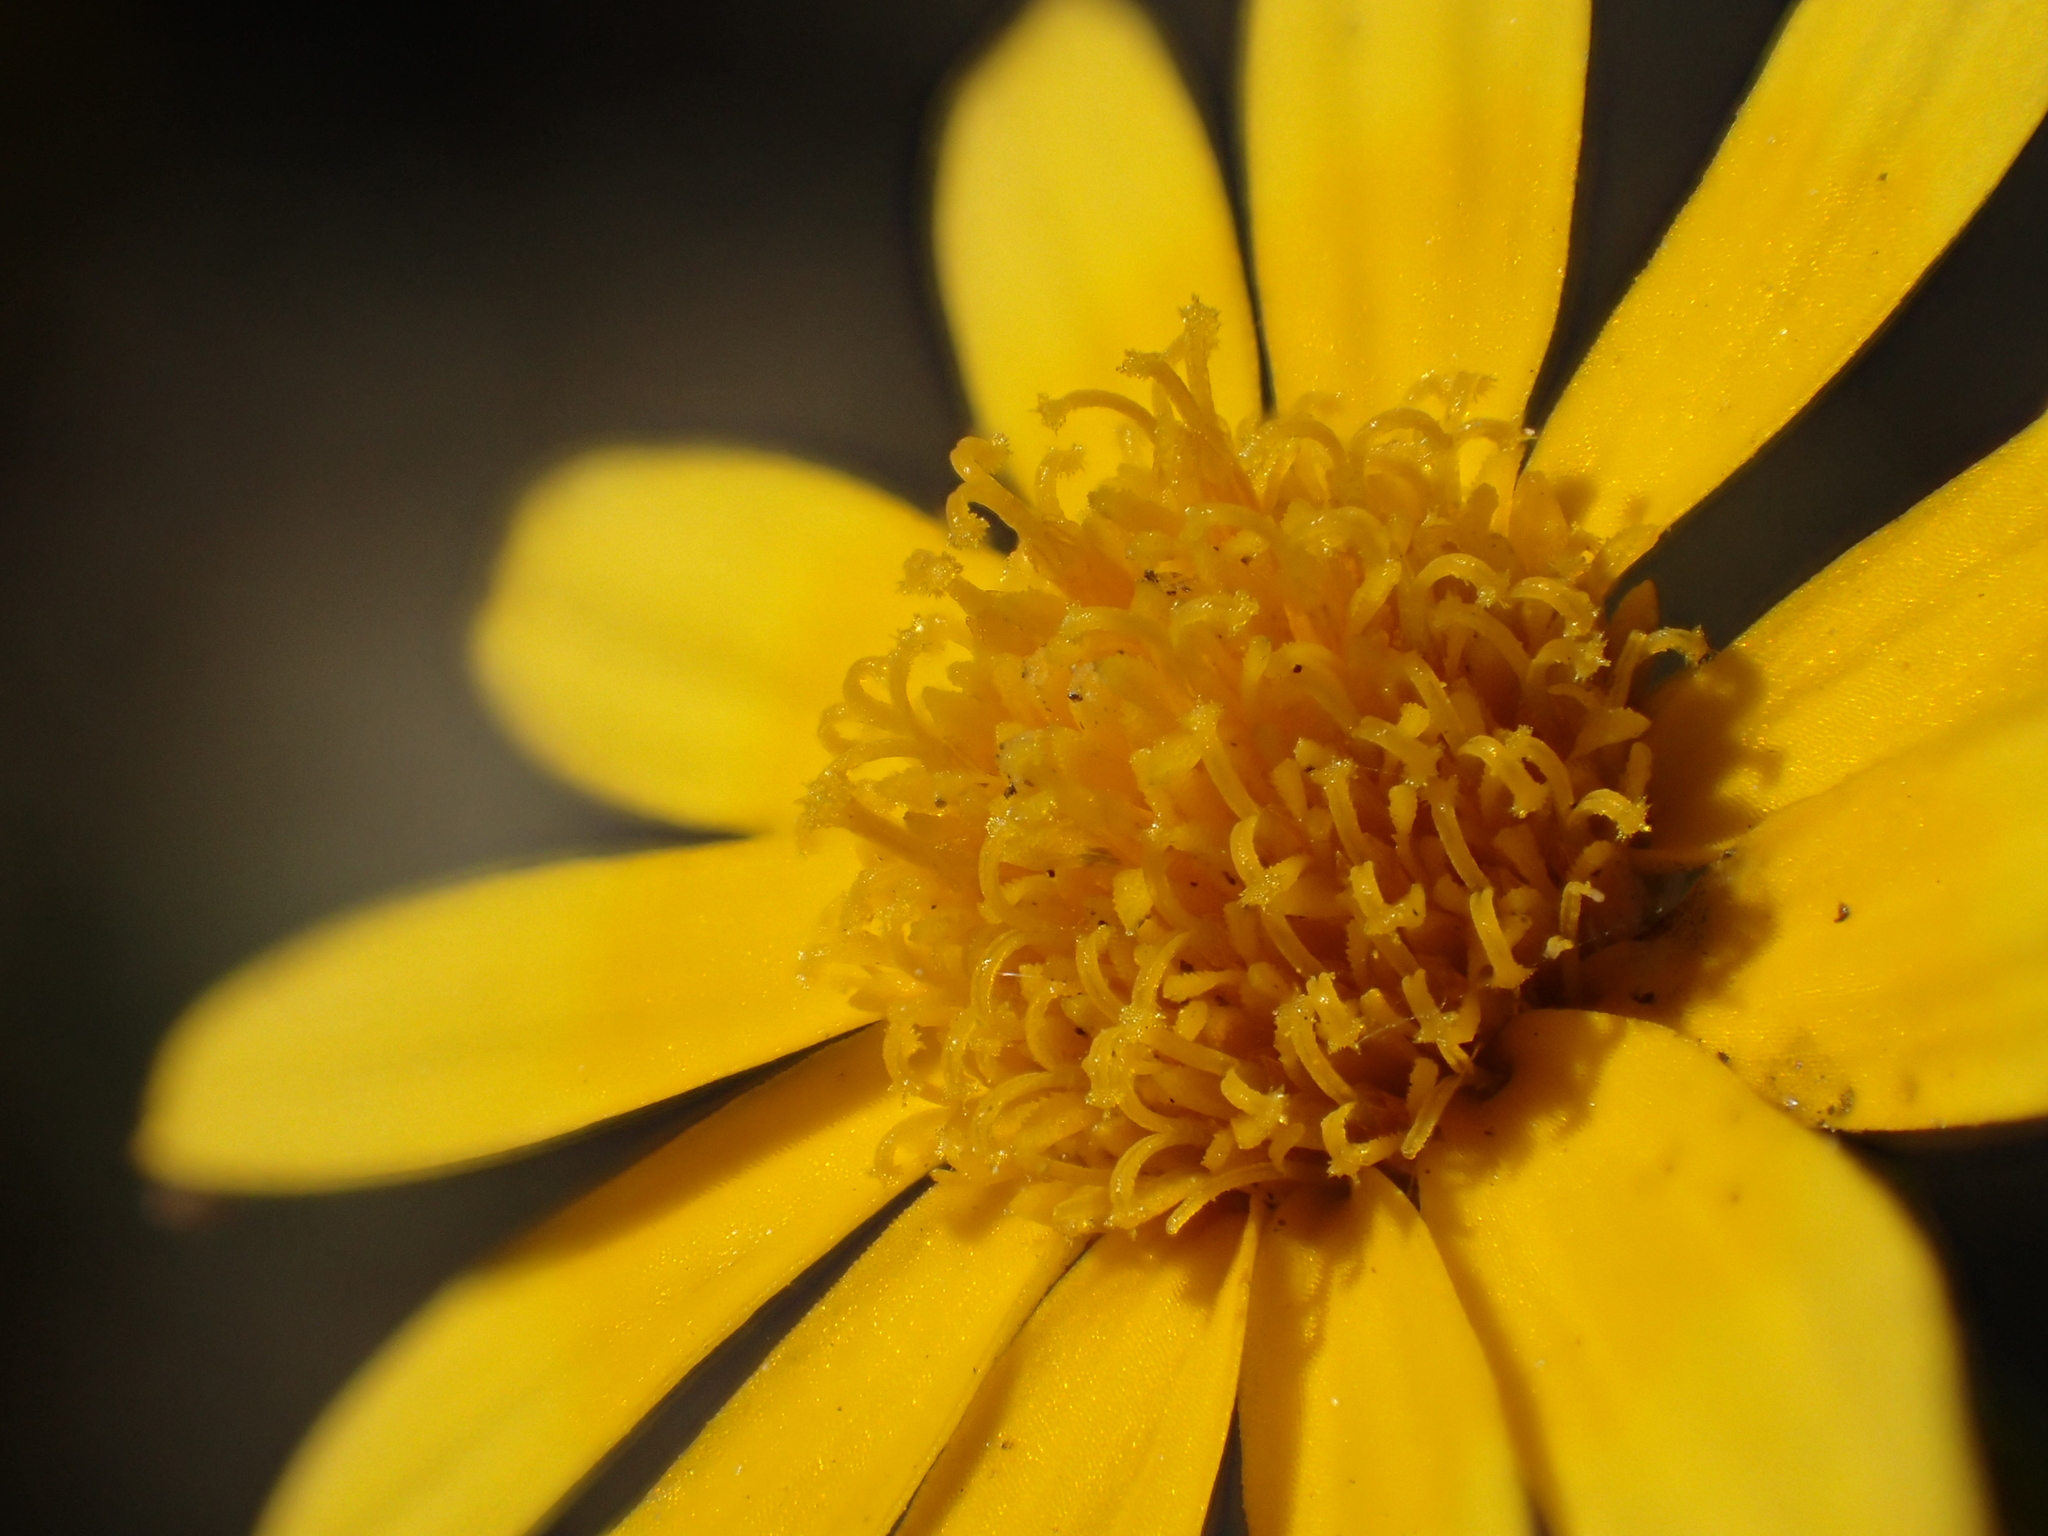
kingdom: Plantae
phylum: Tracheophyta
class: Magnoliopsida
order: Asterales
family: Asteraceae
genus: Thymophylla
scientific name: Thymophylla tenuiloba
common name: Dahlberg's daisy
